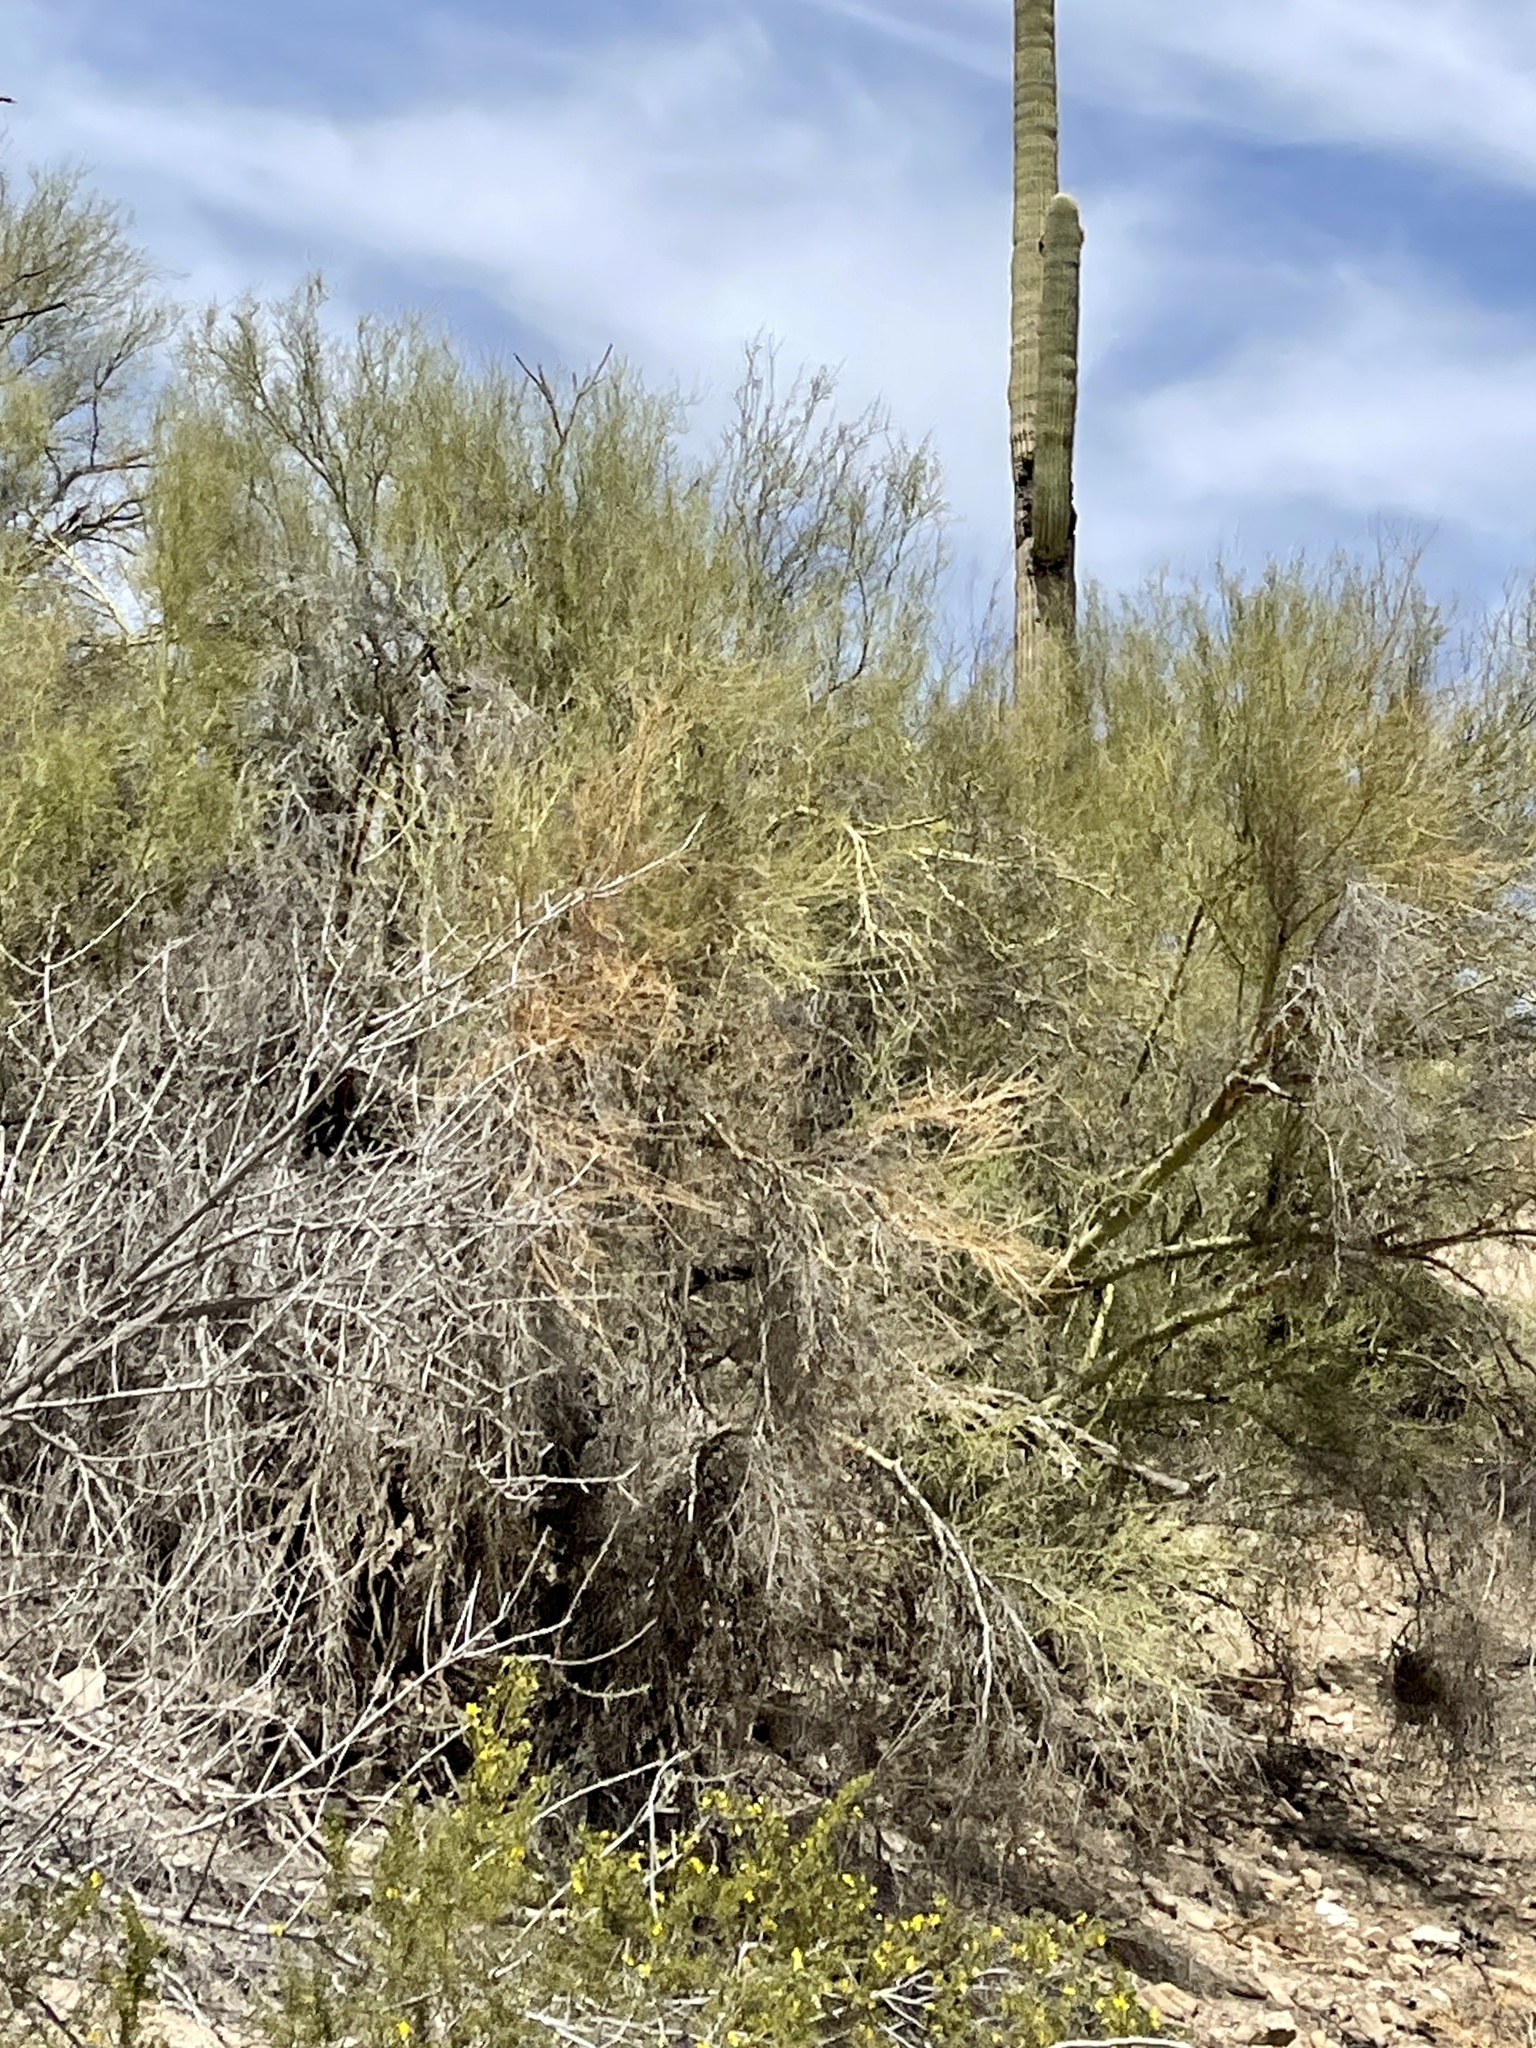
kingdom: Plantae
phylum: Tracheophyta
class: Magnoliopsida
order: Fabales
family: Fabaceae
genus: Parkinsonia
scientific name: Parkinsonia microphylla
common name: Yellow paloverde
